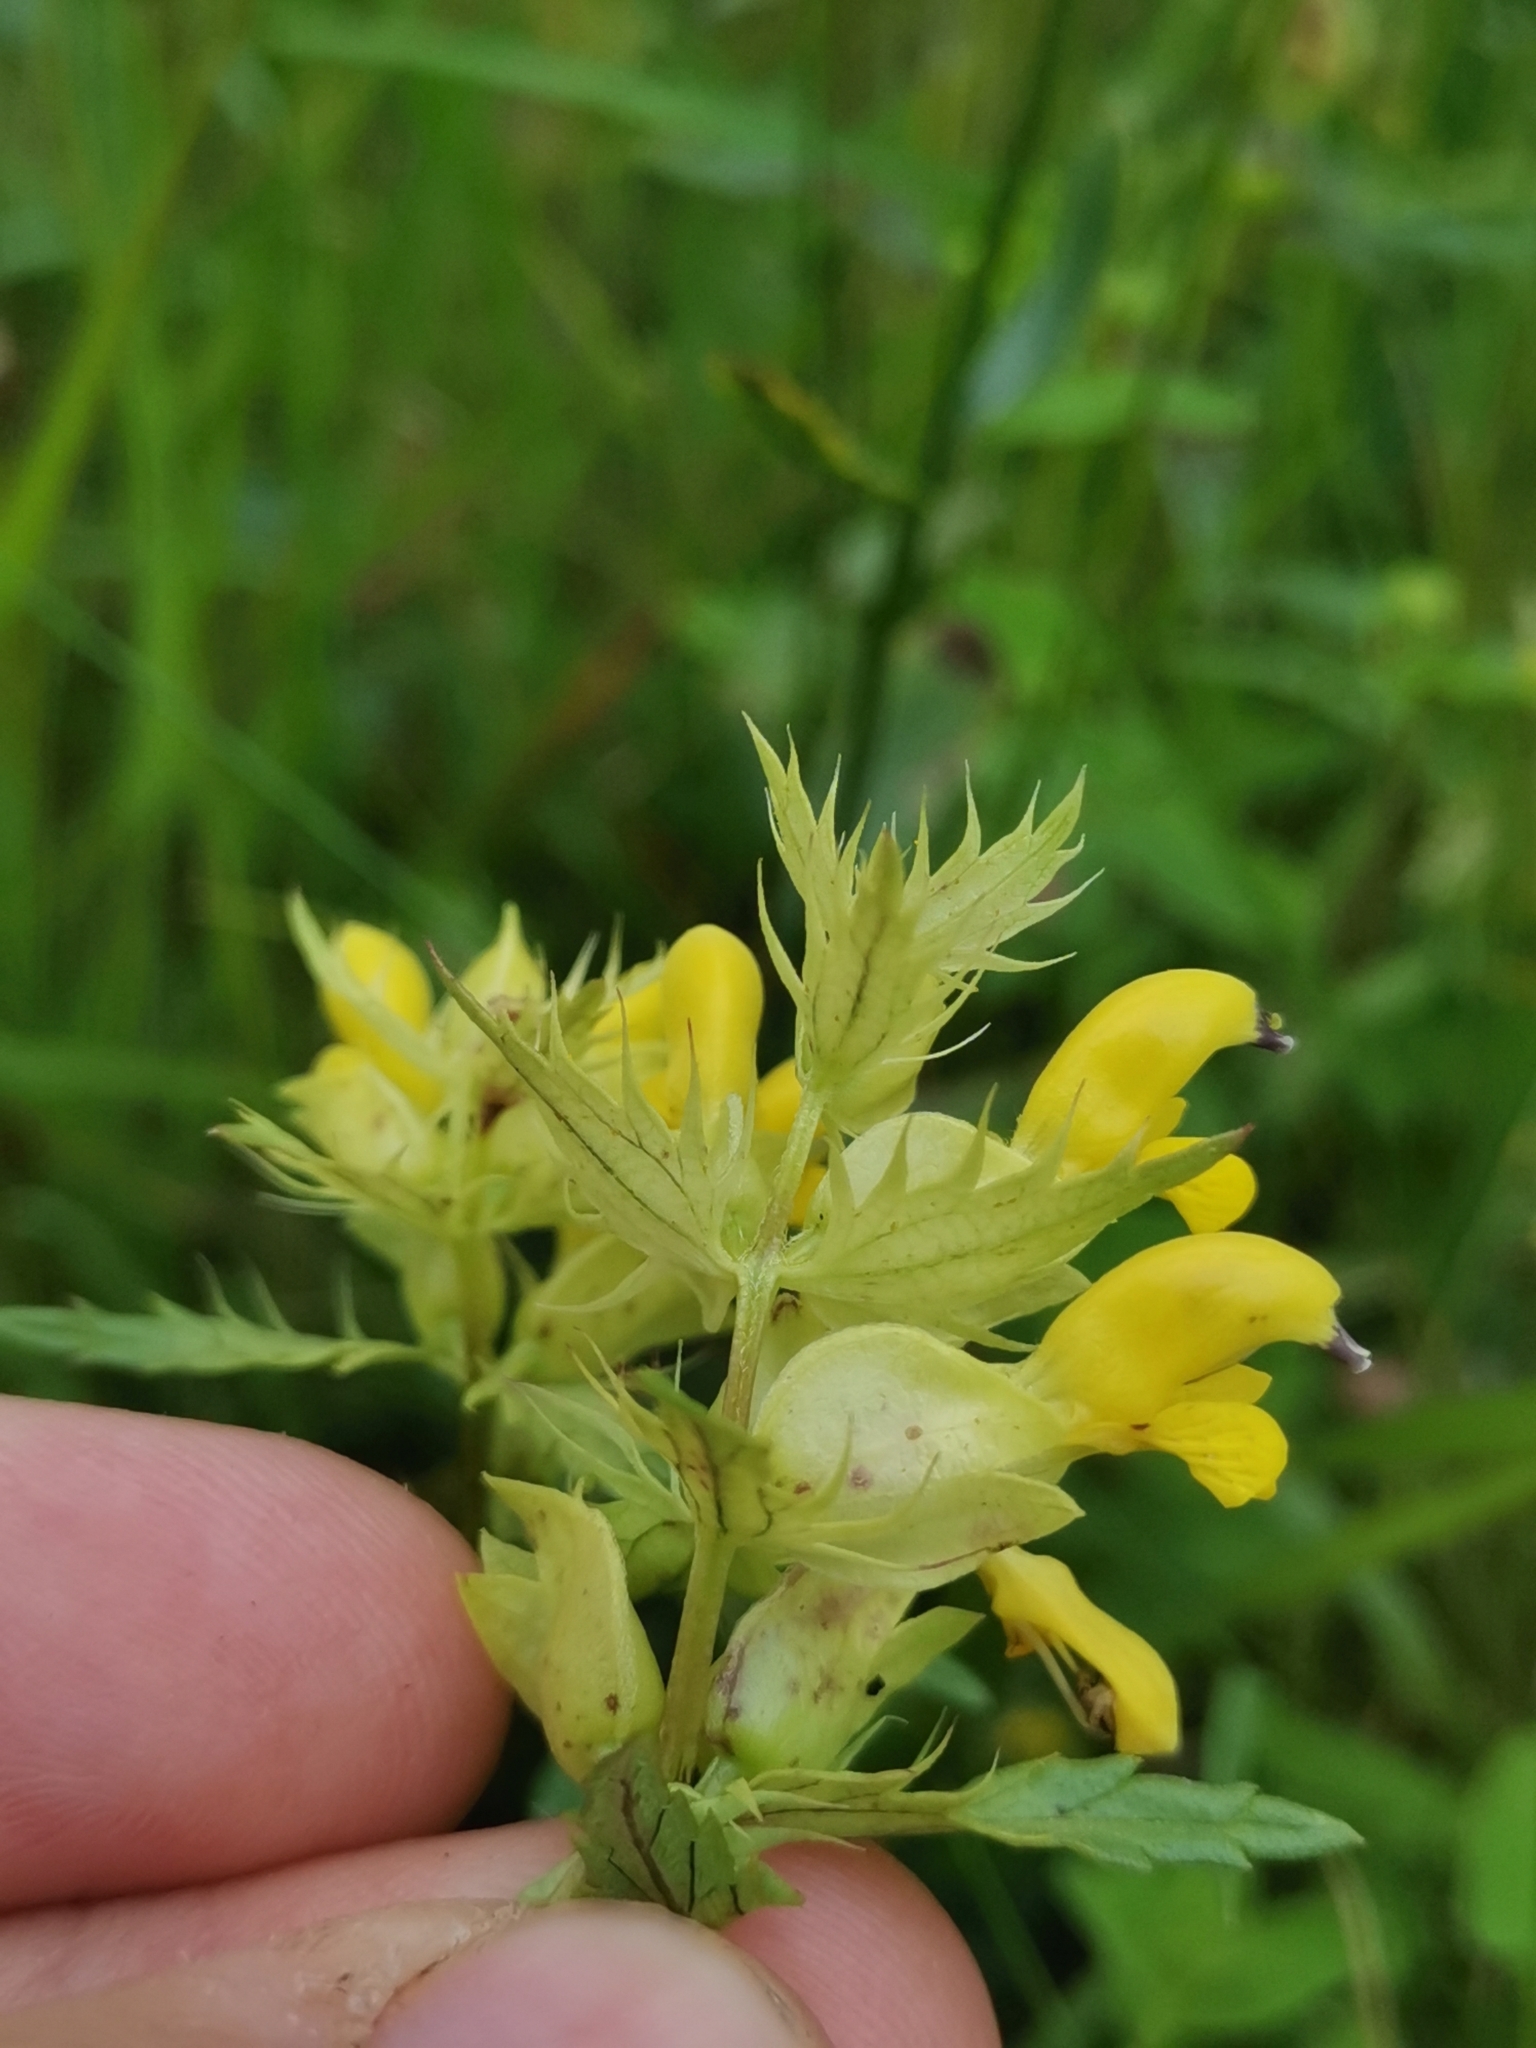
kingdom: Plantae
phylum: Tracheophyta
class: Magnoliopsida
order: Lamiales
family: Orobanchaceae
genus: Rhinanthus
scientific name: Rhinanthus glacialis
